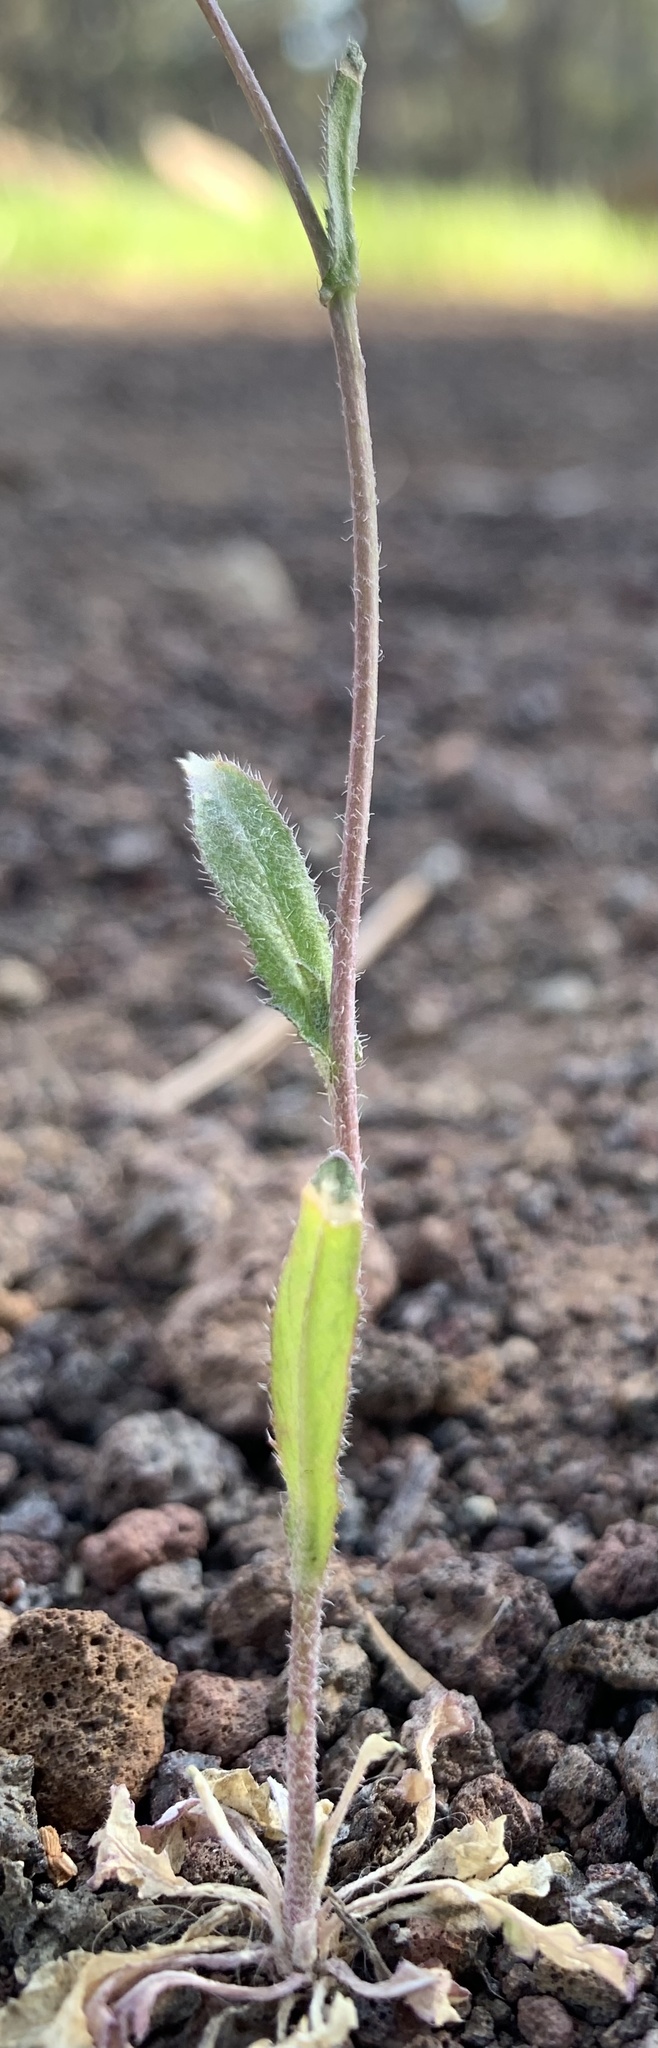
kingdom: Plantae
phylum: Tracheophyta
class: Magnoliopsida
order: Brassicales
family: Brassicaceae
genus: Capsella
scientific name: Capsella bursa-pastoris
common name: Shepherd's purse
